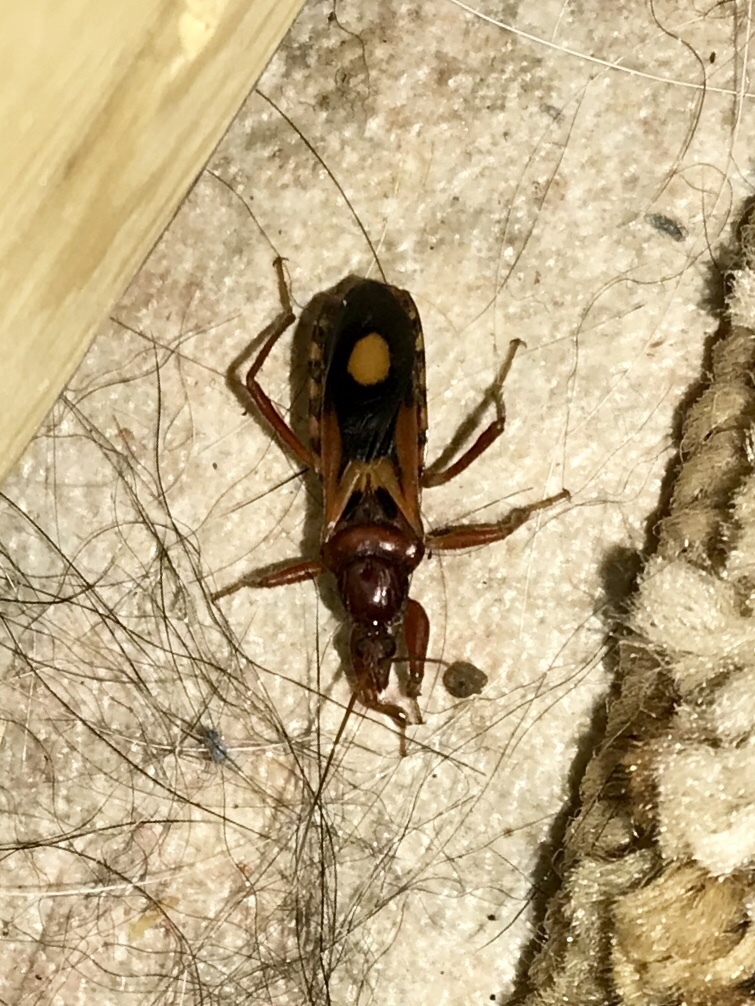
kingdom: Animalia
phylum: Arthropoda
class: Insecta
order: Hemiptera
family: Reduviidae
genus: Rasahus
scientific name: Rasahus thoracicus
